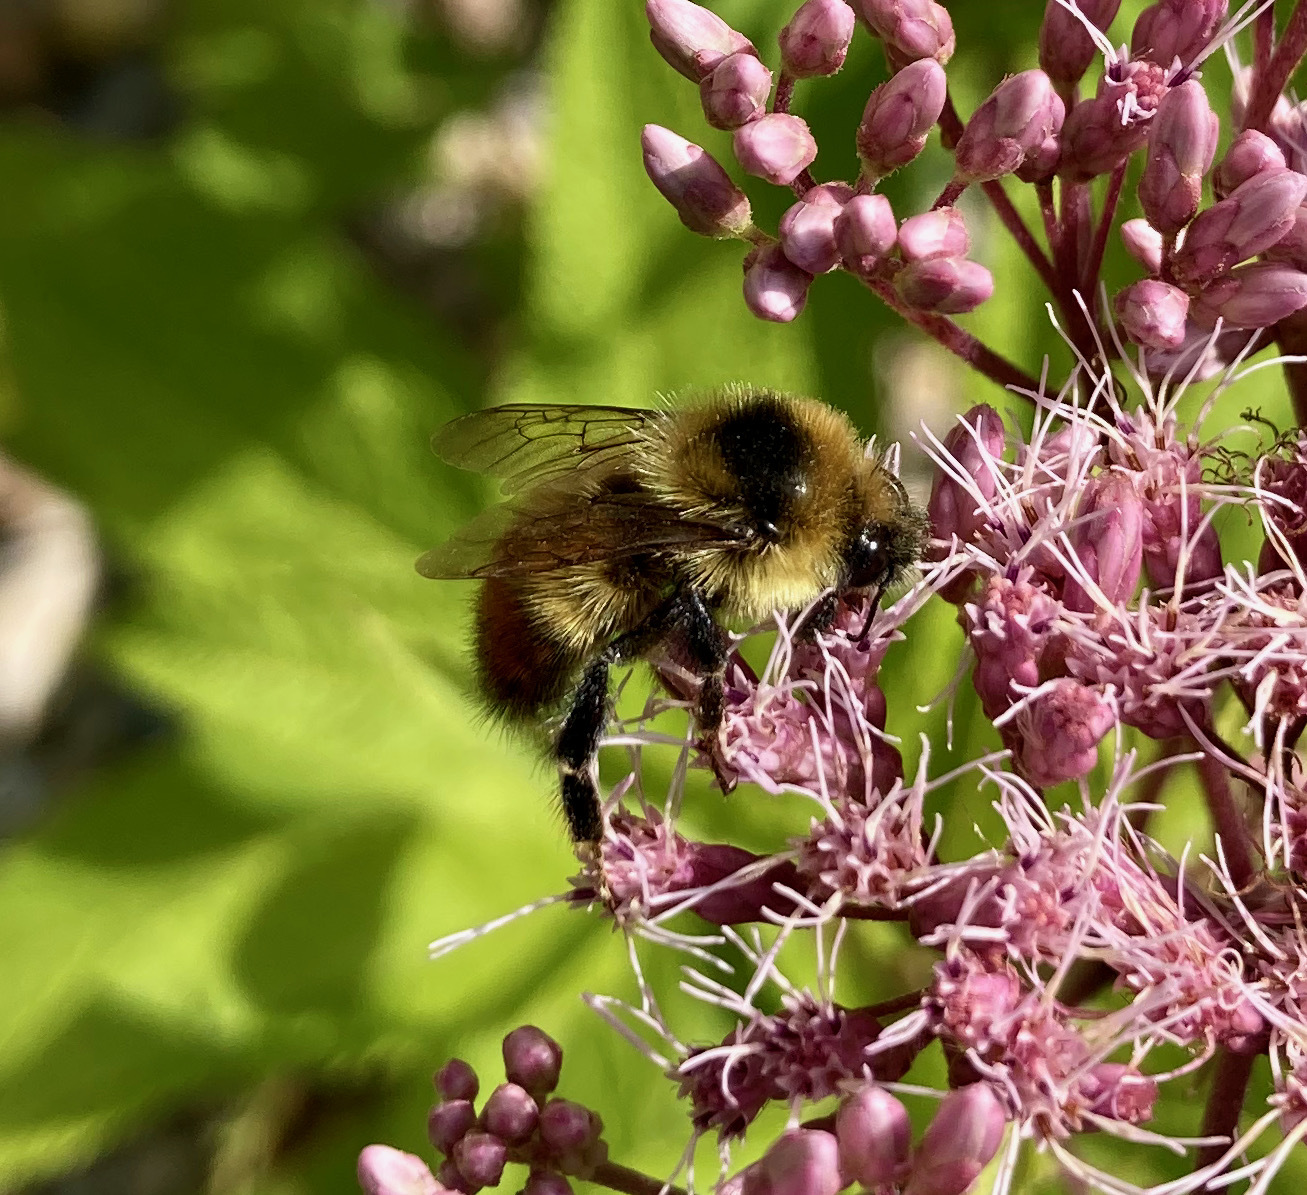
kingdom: Animalia
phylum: Arthropoda
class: Insecta
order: Hymenoptera
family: Apidae
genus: Bombus
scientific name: Bombus rufocinctus
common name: Red-belted bumble bee
